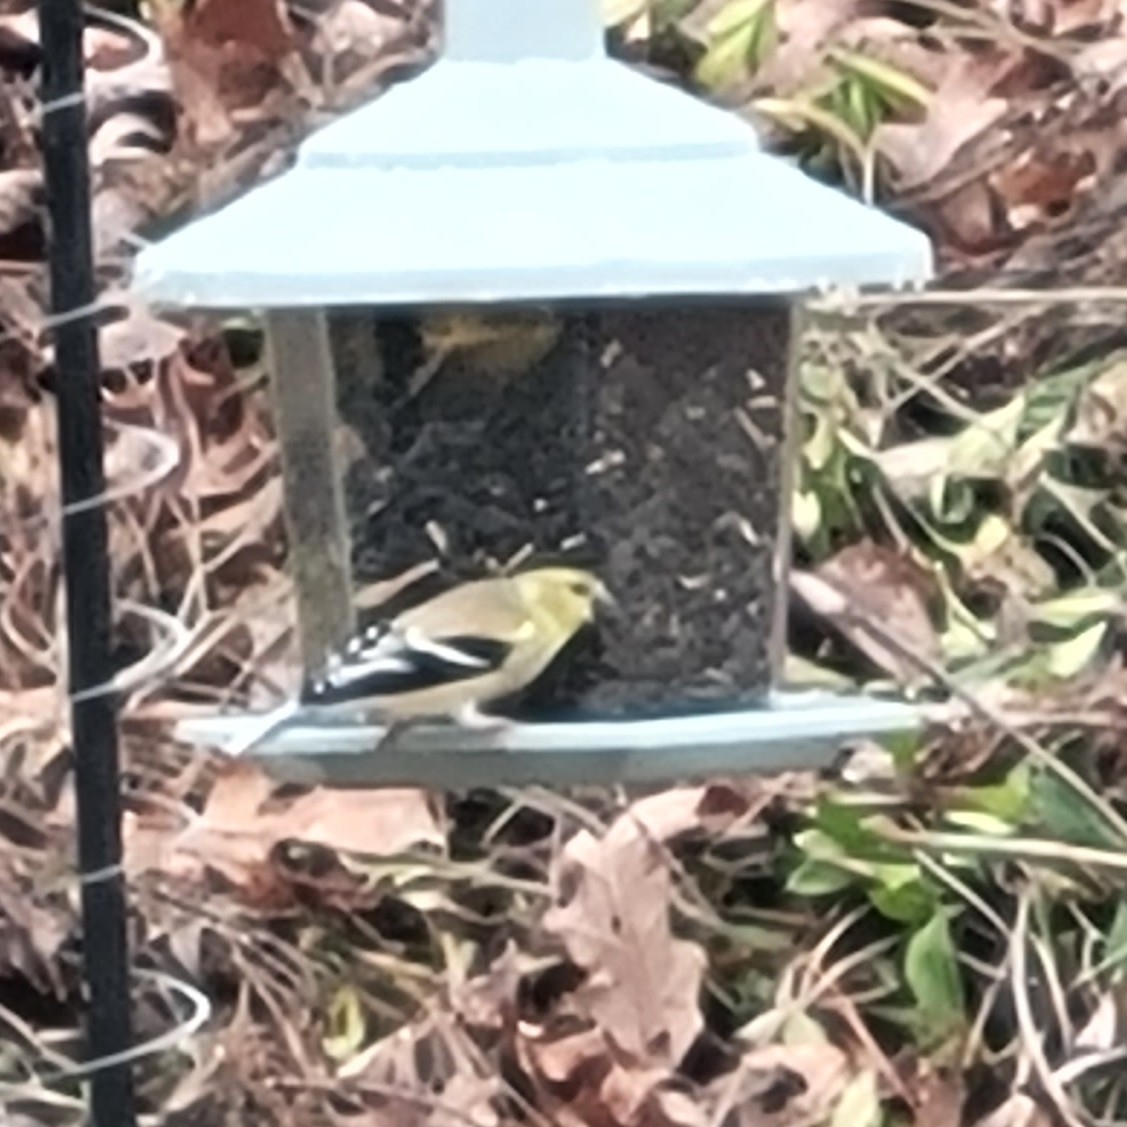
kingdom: Animalia
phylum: Chordata
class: Aves
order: Passeriformes
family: Fringillidae
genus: Spinus
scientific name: Spinus tristis
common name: American goldfinch
